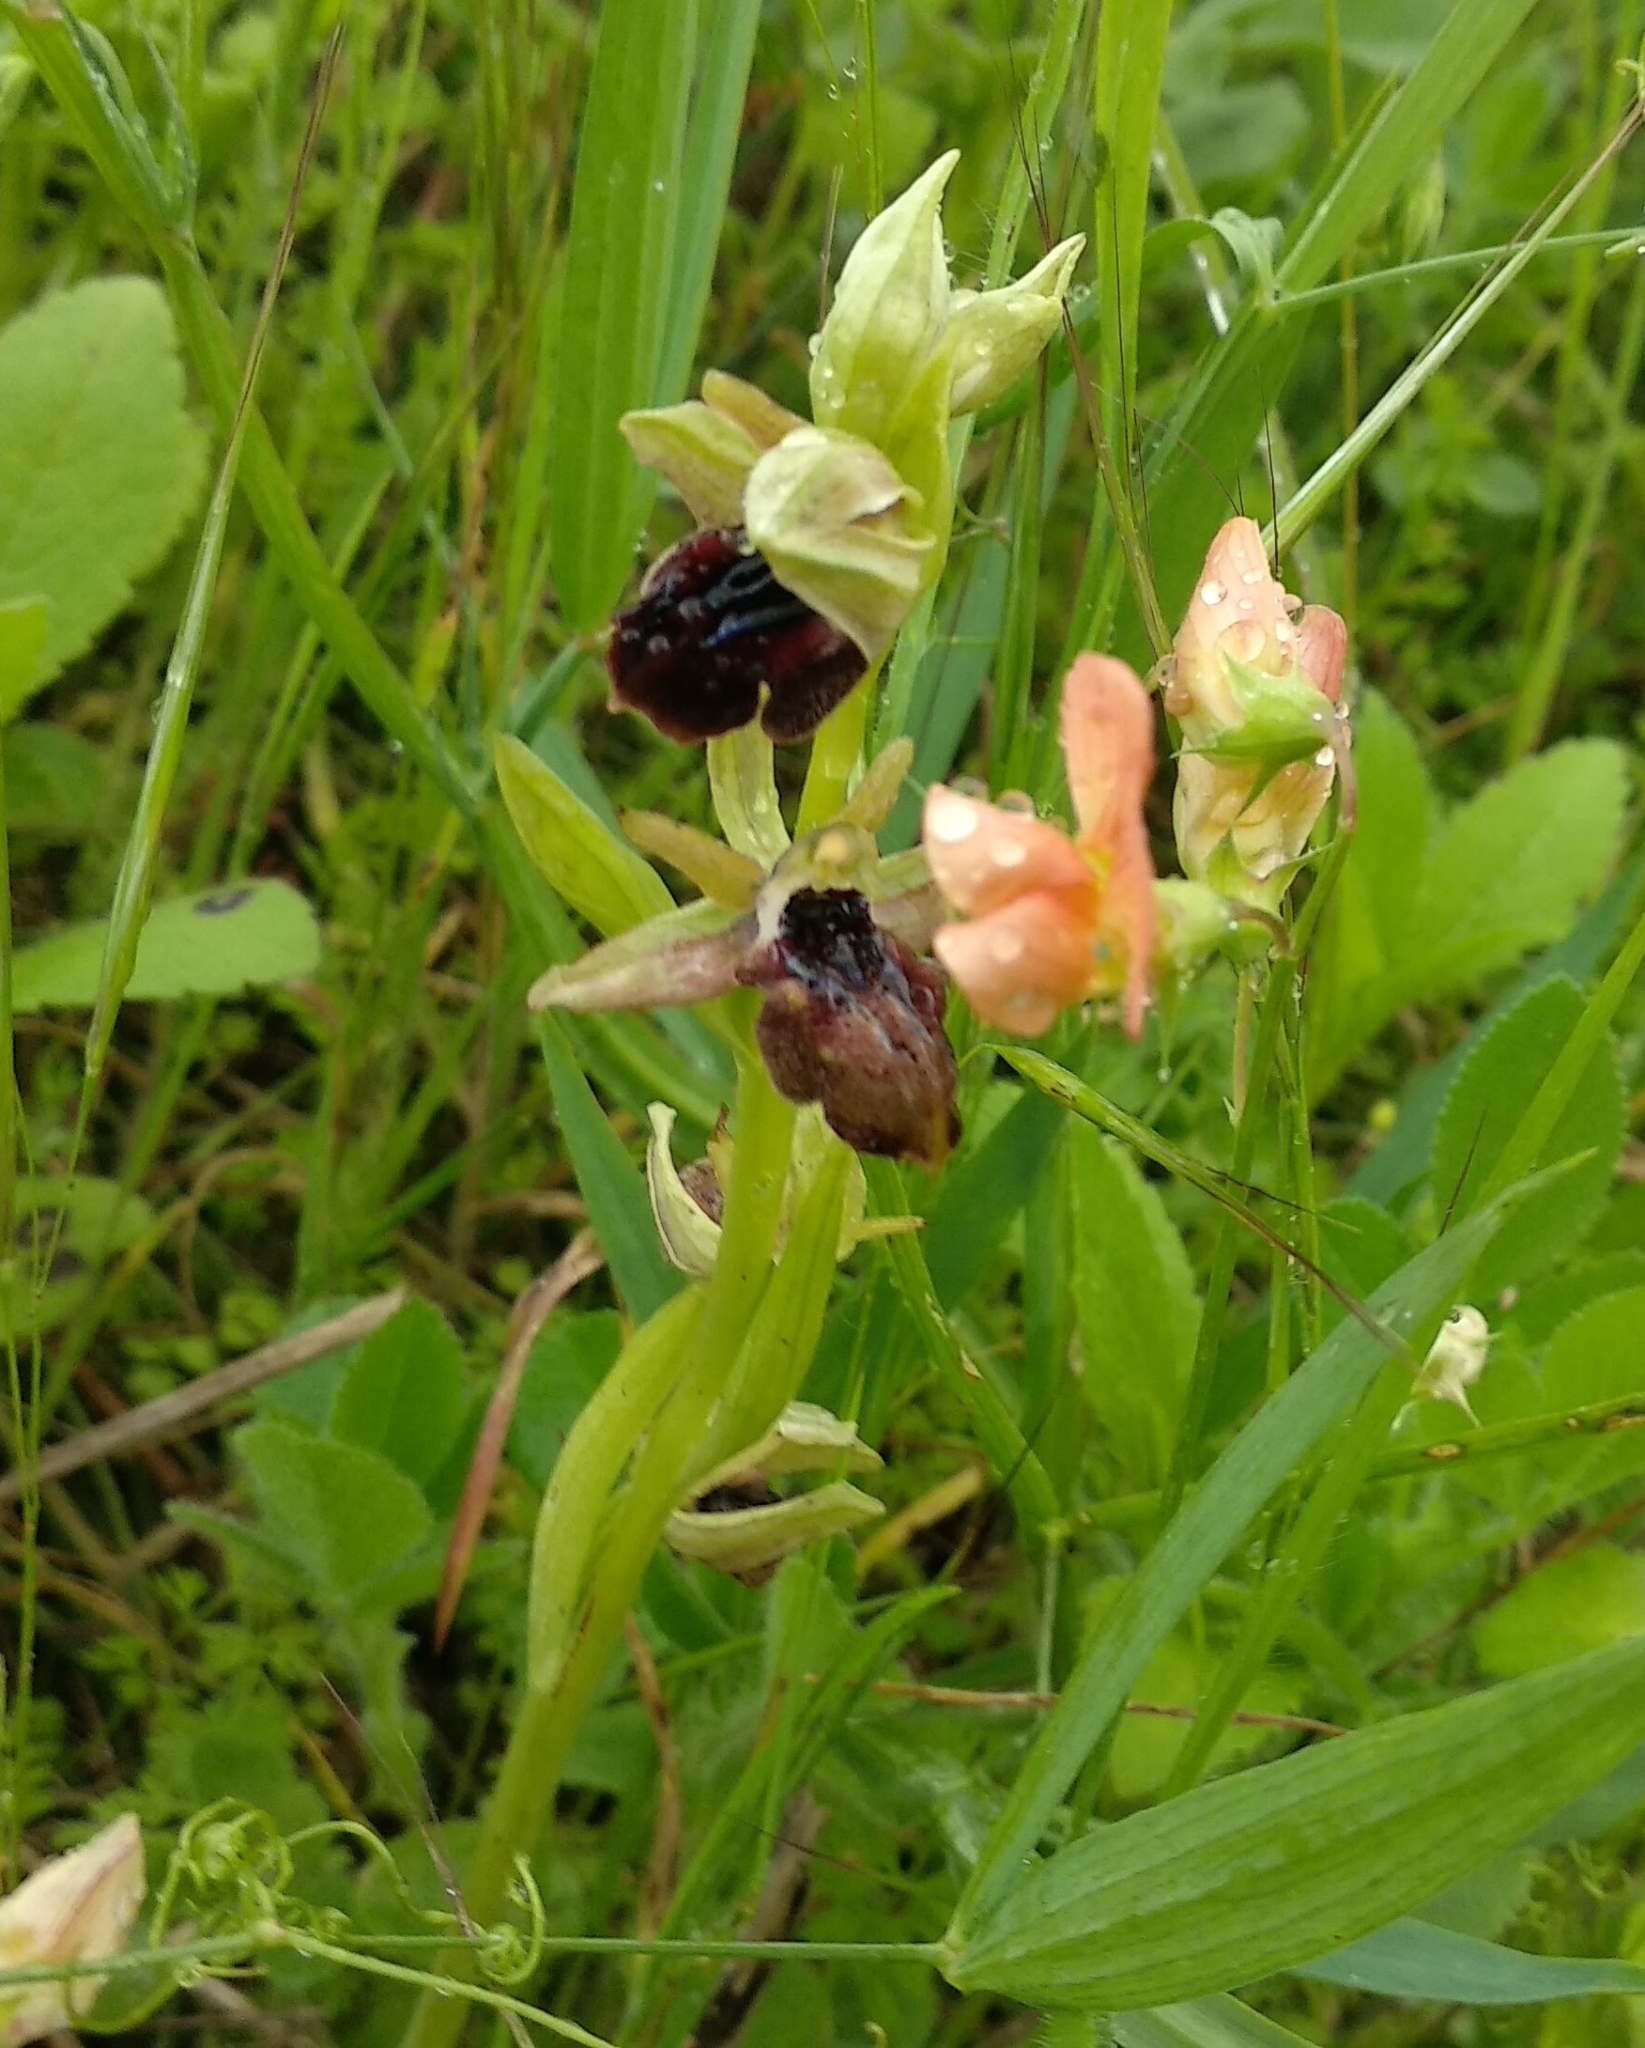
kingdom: Plantae
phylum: Tracheophyta
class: Liliopsida
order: Asparagales
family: Orchidaceae
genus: Ophrys
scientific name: Ophrys sphegodes
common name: Early spider-orchid
